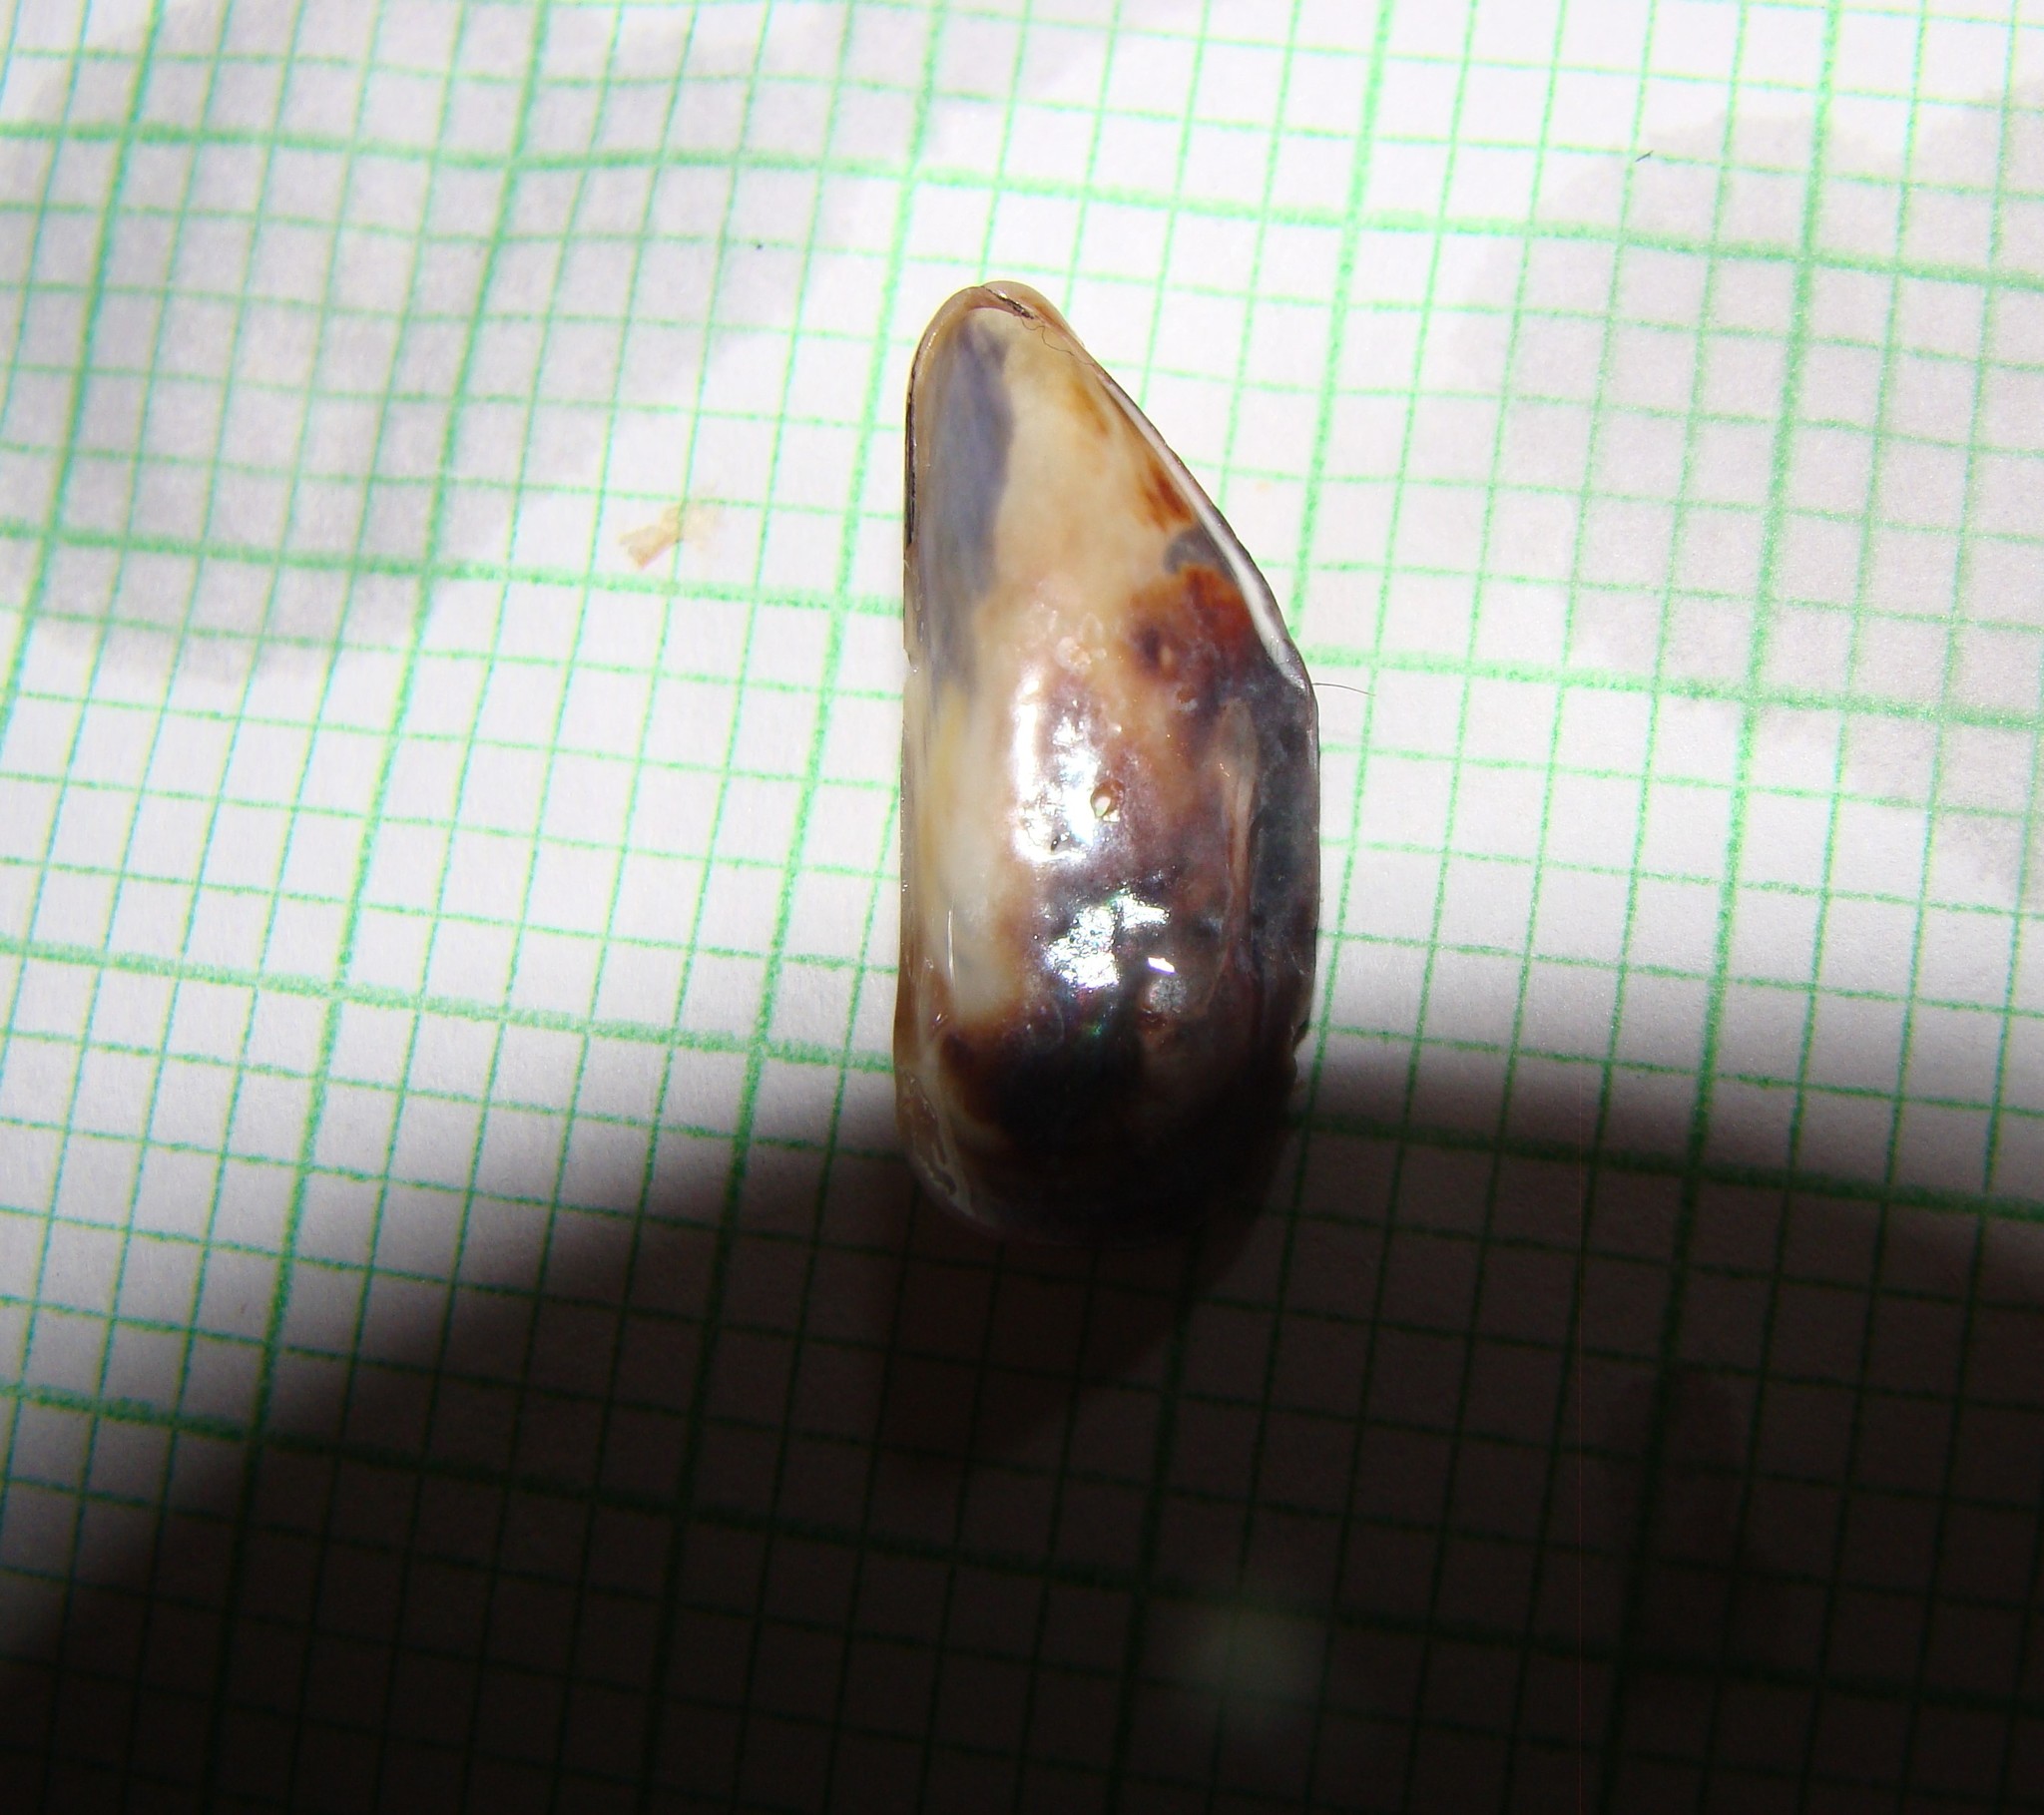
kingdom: Animalia
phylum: Mollusca
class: Bivalvia
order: Mytilida
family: Mytilidae
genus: Xenostrobus
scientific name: Xenostrobus neozelanicus
